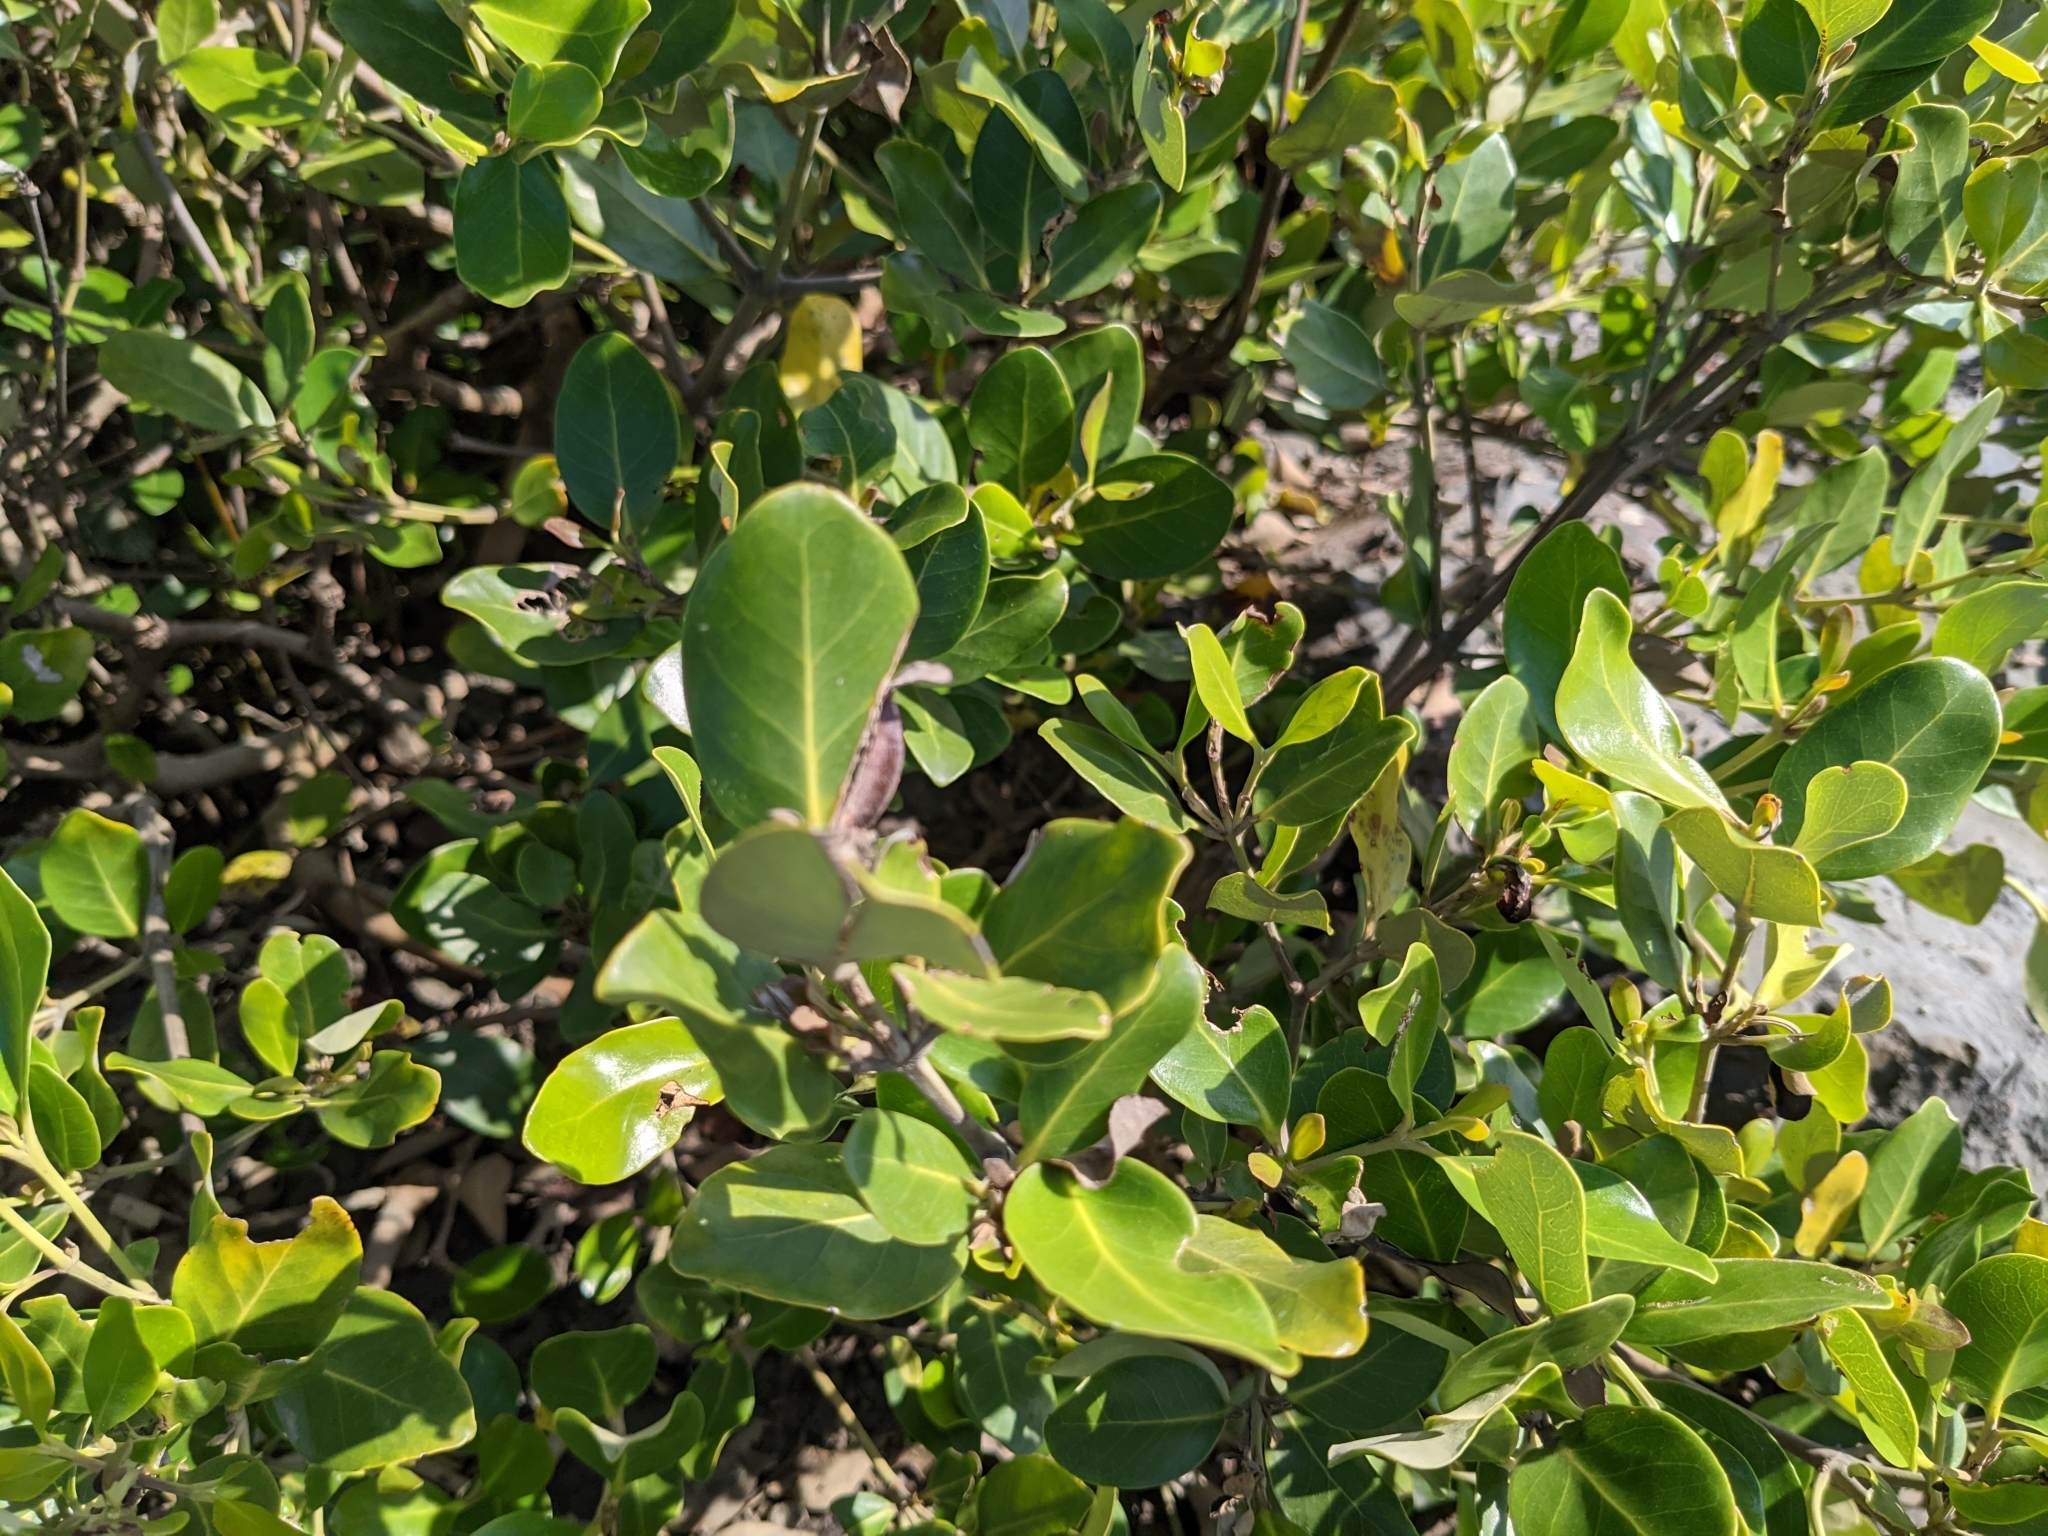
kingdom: Plantae
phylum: Tracheophyta
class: Magnoliopsida
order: Lamiales
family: Acanthaceae
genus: Avicennia
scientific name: Avicennia marina
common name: Gray mangrove
